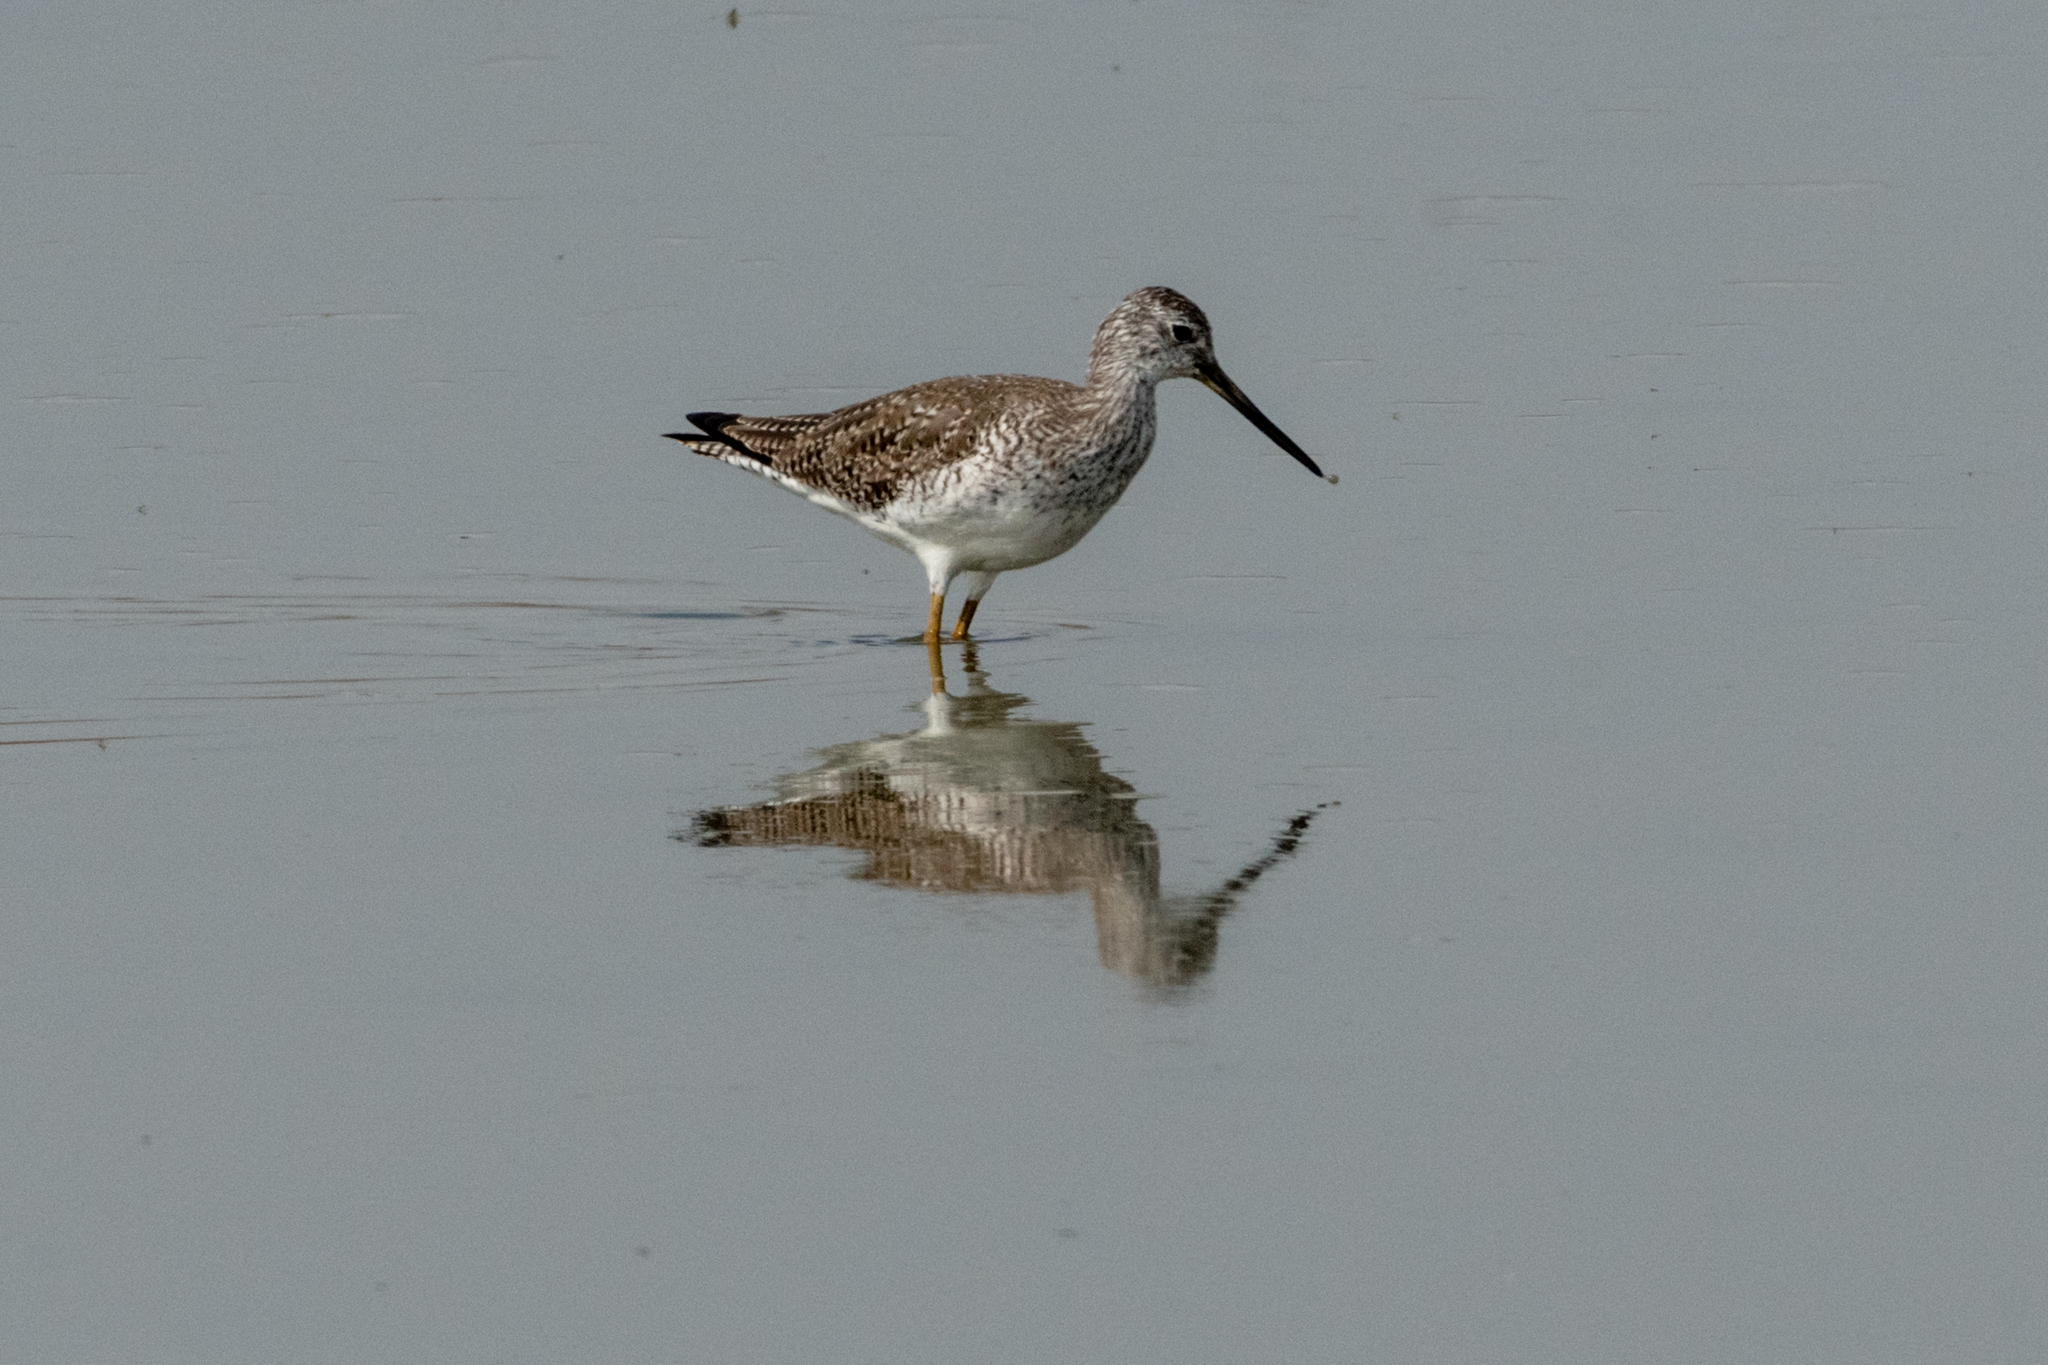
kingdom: Animalia
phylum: Chordata
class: Aves
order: Charadriiformes
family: Scolopacidae
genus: Tringa
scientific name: Tringa melanoleuca
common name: Greater yellowlegs
